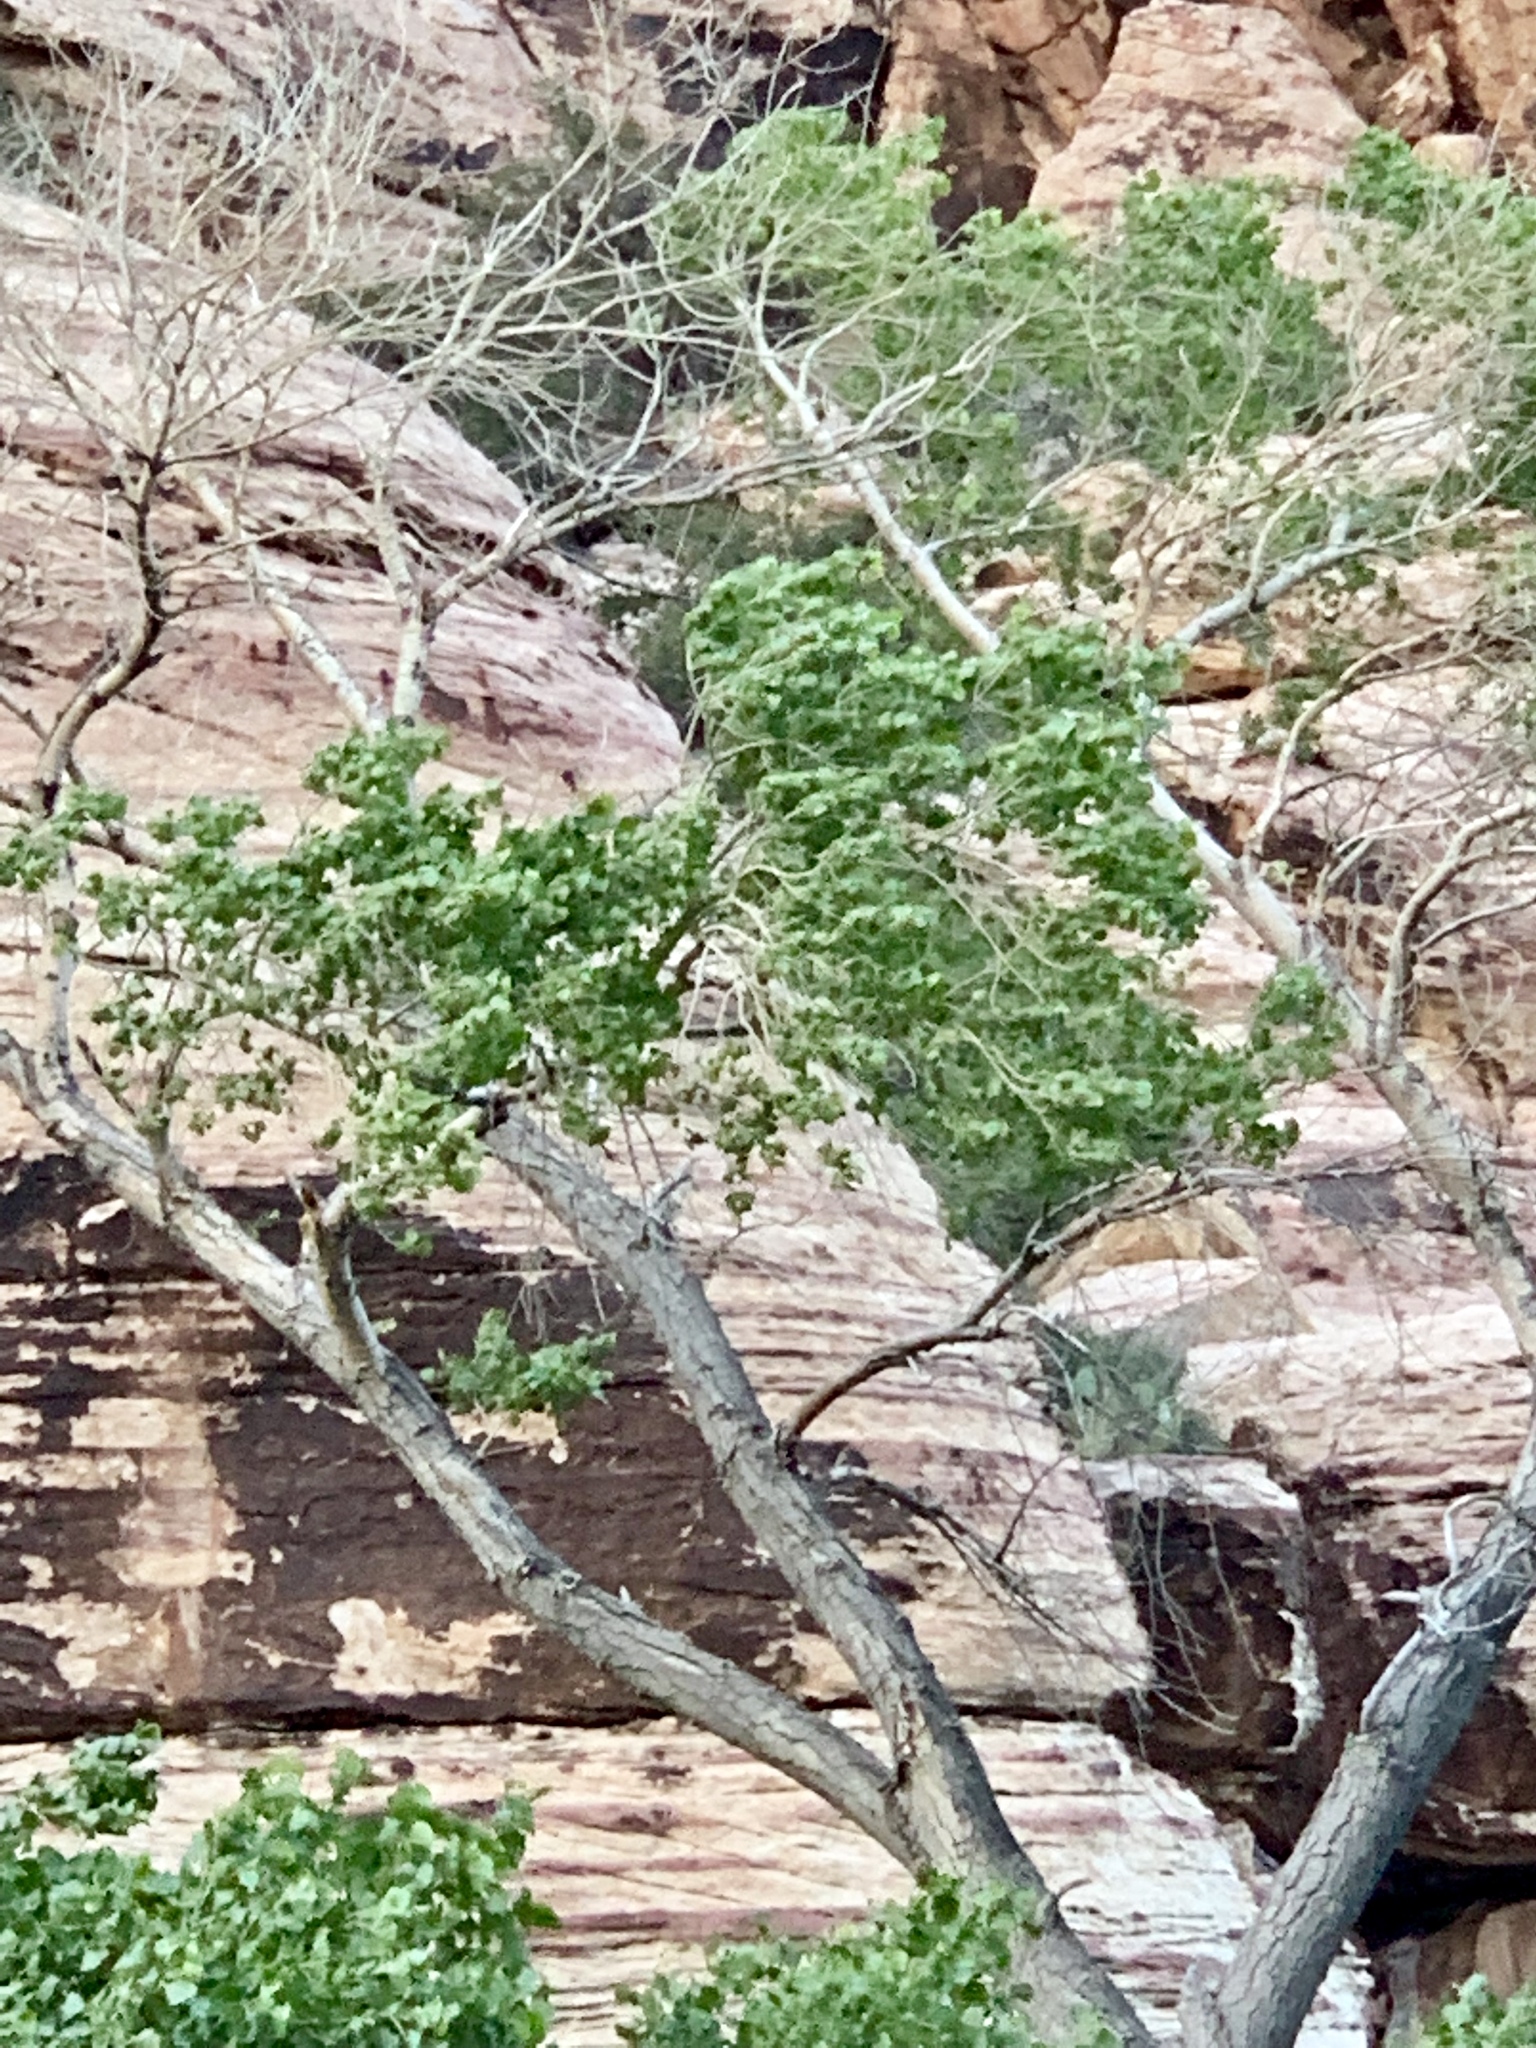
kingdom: Plantae
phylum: Tracheophyta
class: Magnoliopsida
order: Malpighiales
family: Salicaceae
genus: Populus
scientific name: Populus fremontii
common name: Fremont's cottonwood
